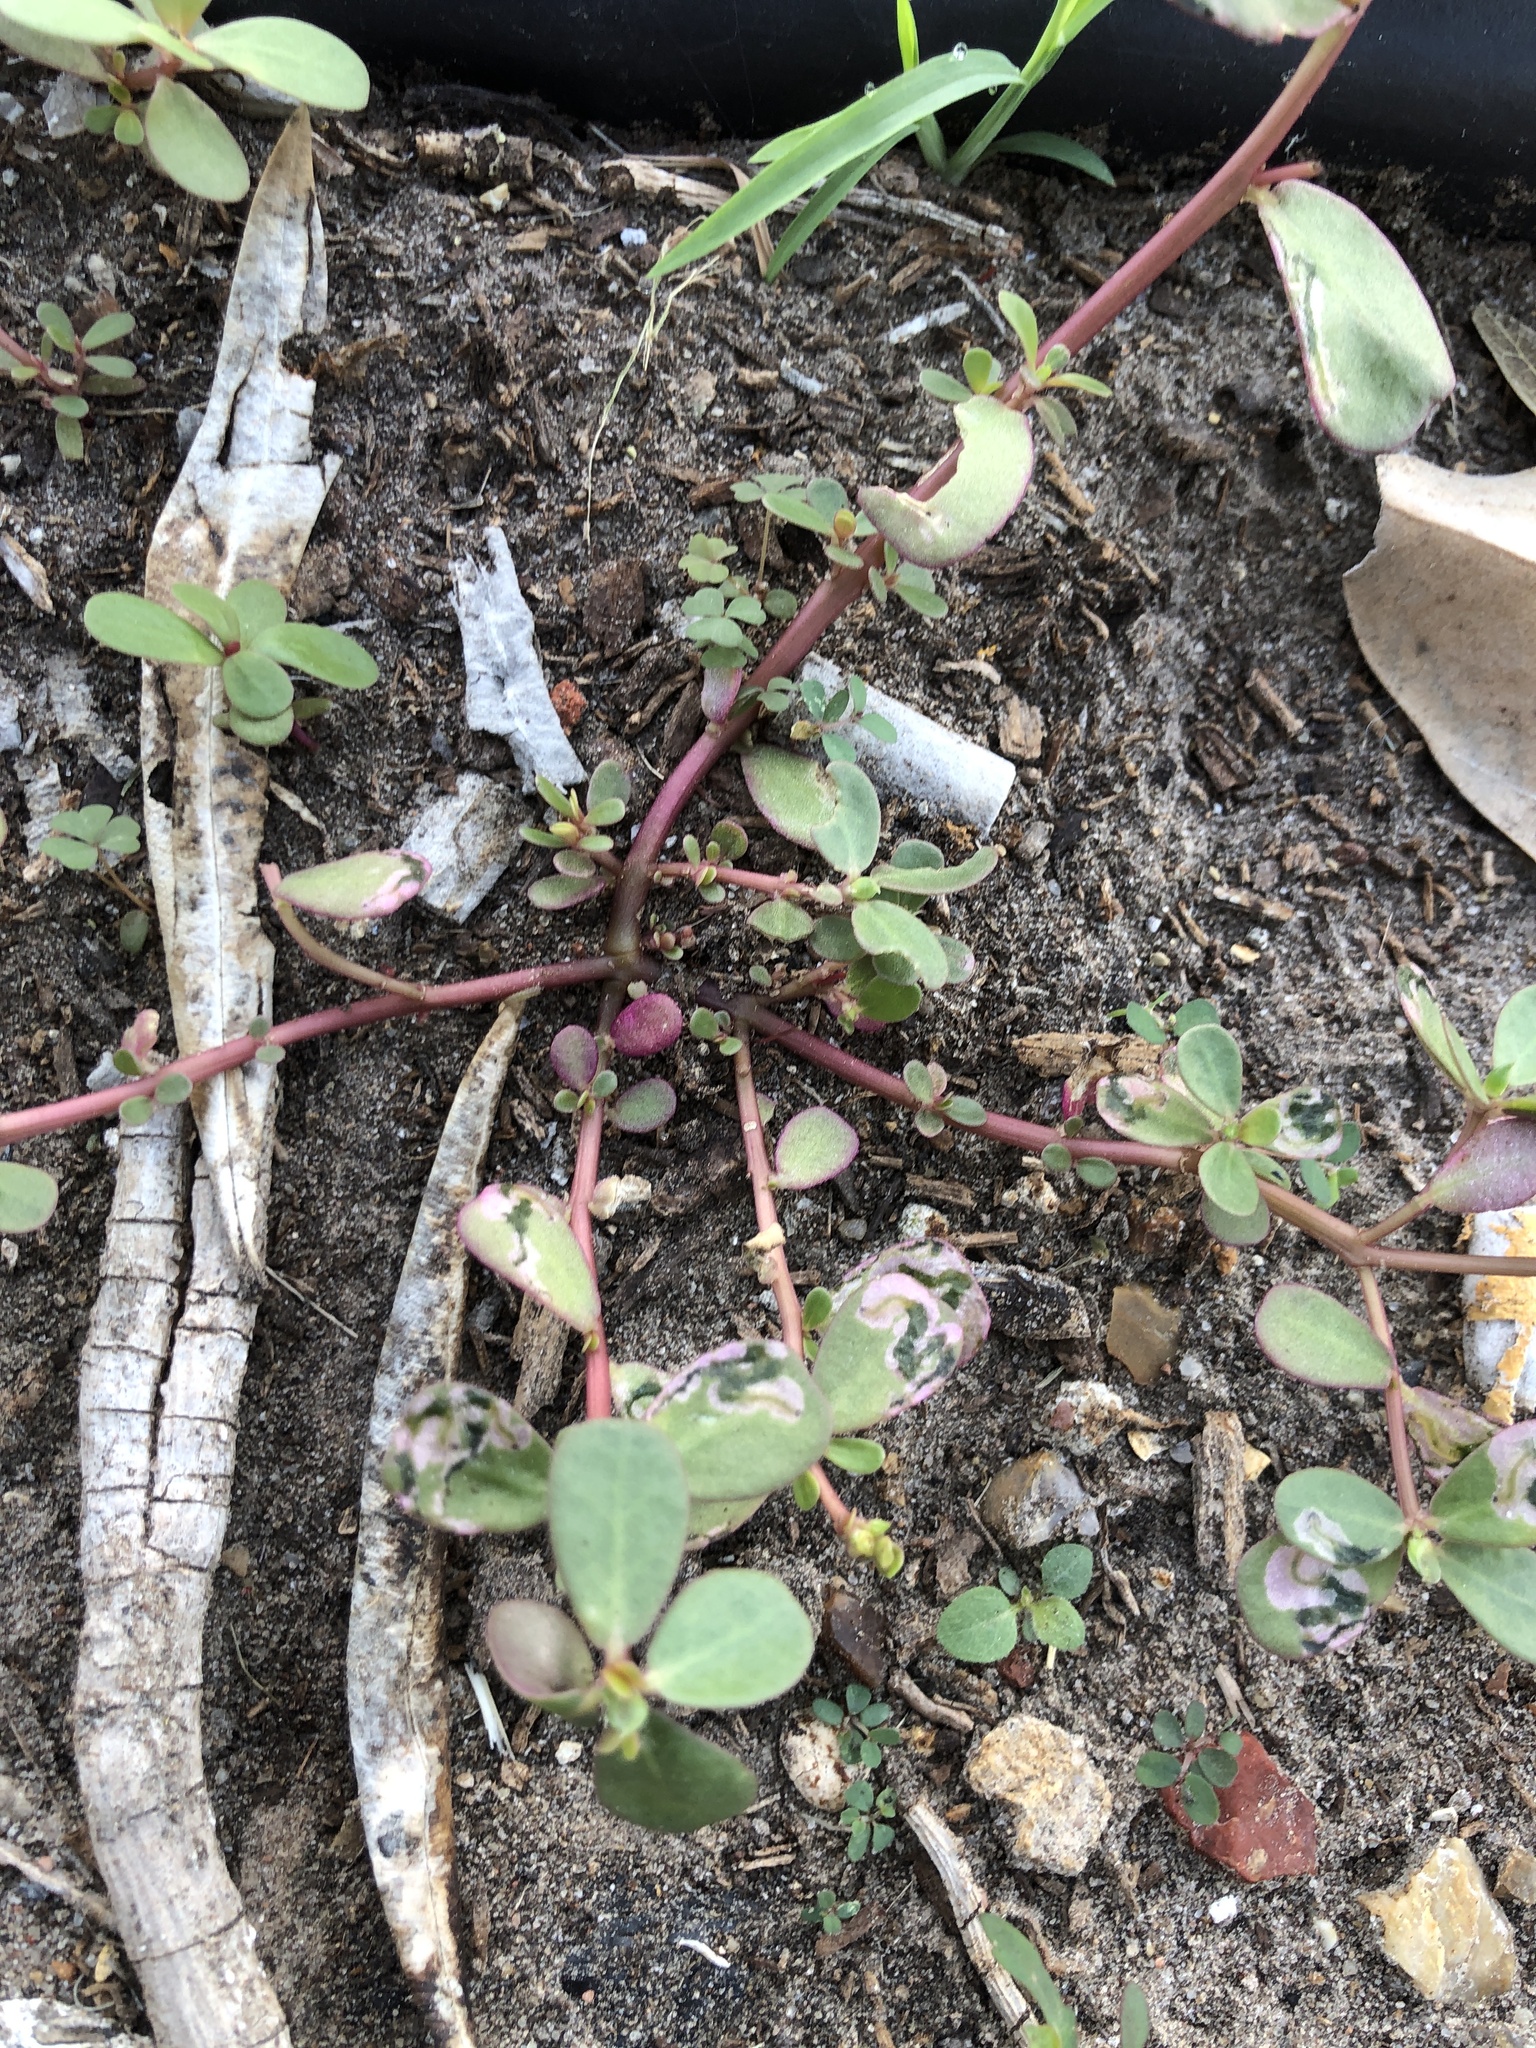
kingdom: Plantae
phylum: Tracheophyta
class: Magnoliopsida
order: Caryophyllales
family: Portulacaceae
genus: Portulaca
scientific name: Portulaca oleracea
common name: Common purslane
